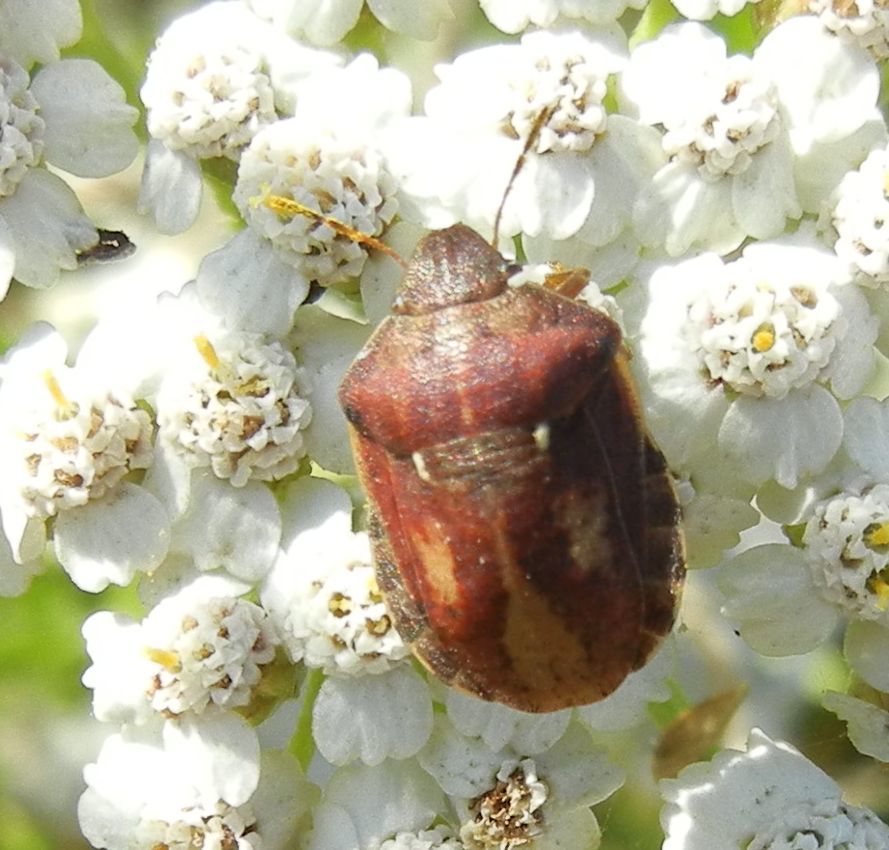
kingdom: Animalia
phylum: Arthropoda
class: Insecta
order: Hemiptera
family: Scutelleridae
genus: Eurygaster
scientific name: Eurygaster testudinaria
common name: Tortoise bug
